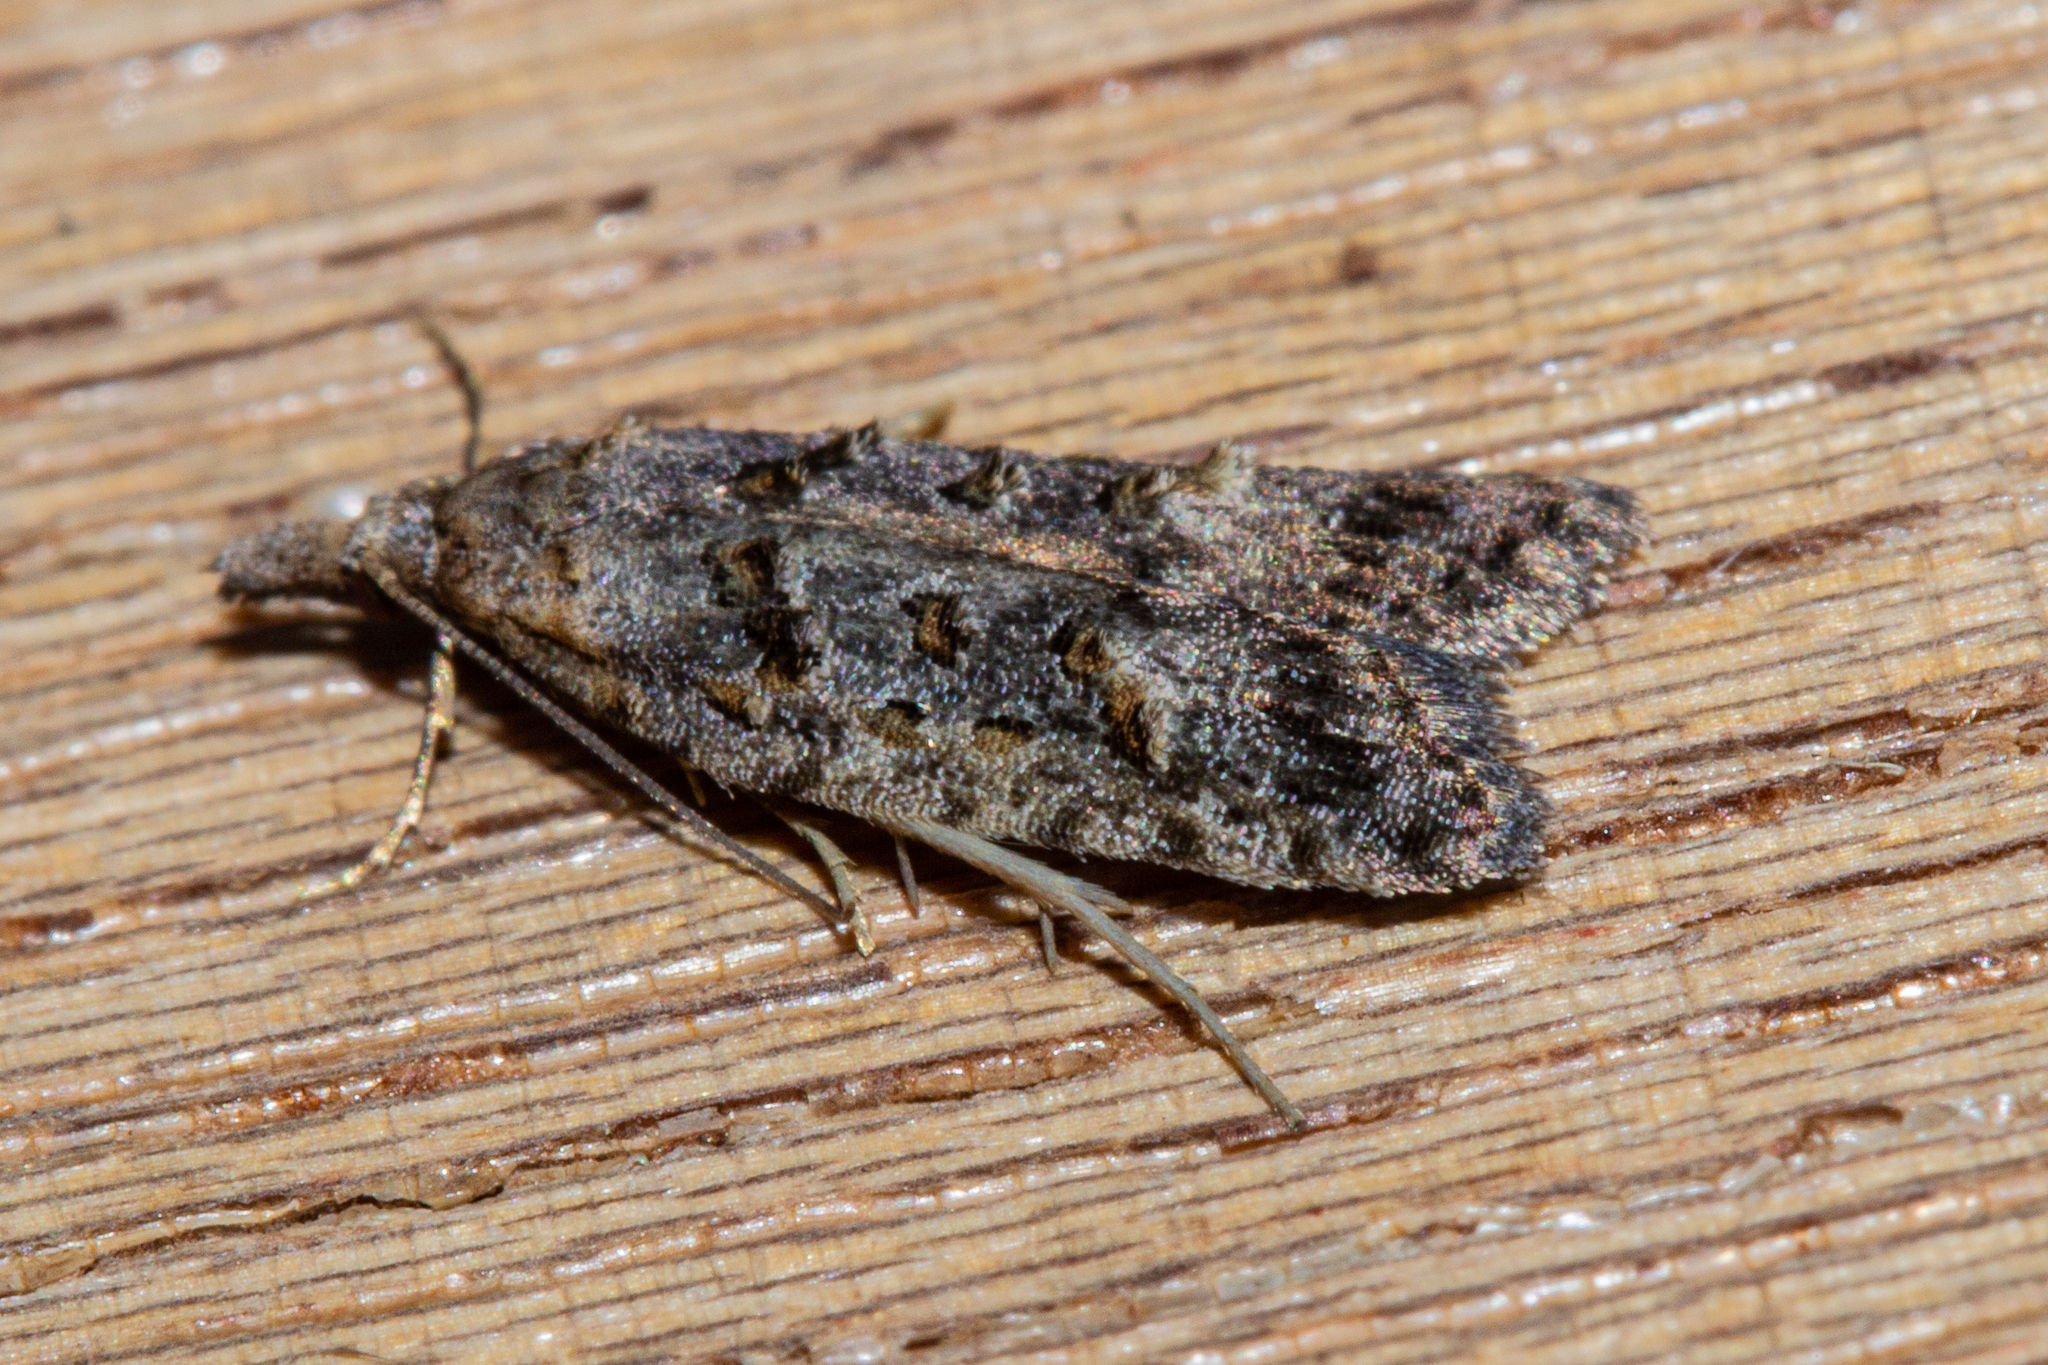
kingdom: Animalia
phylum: Arthropoda
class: Insecta
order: Lepidoptera
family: Carposinidae
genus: Carposina
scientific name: Carposina
